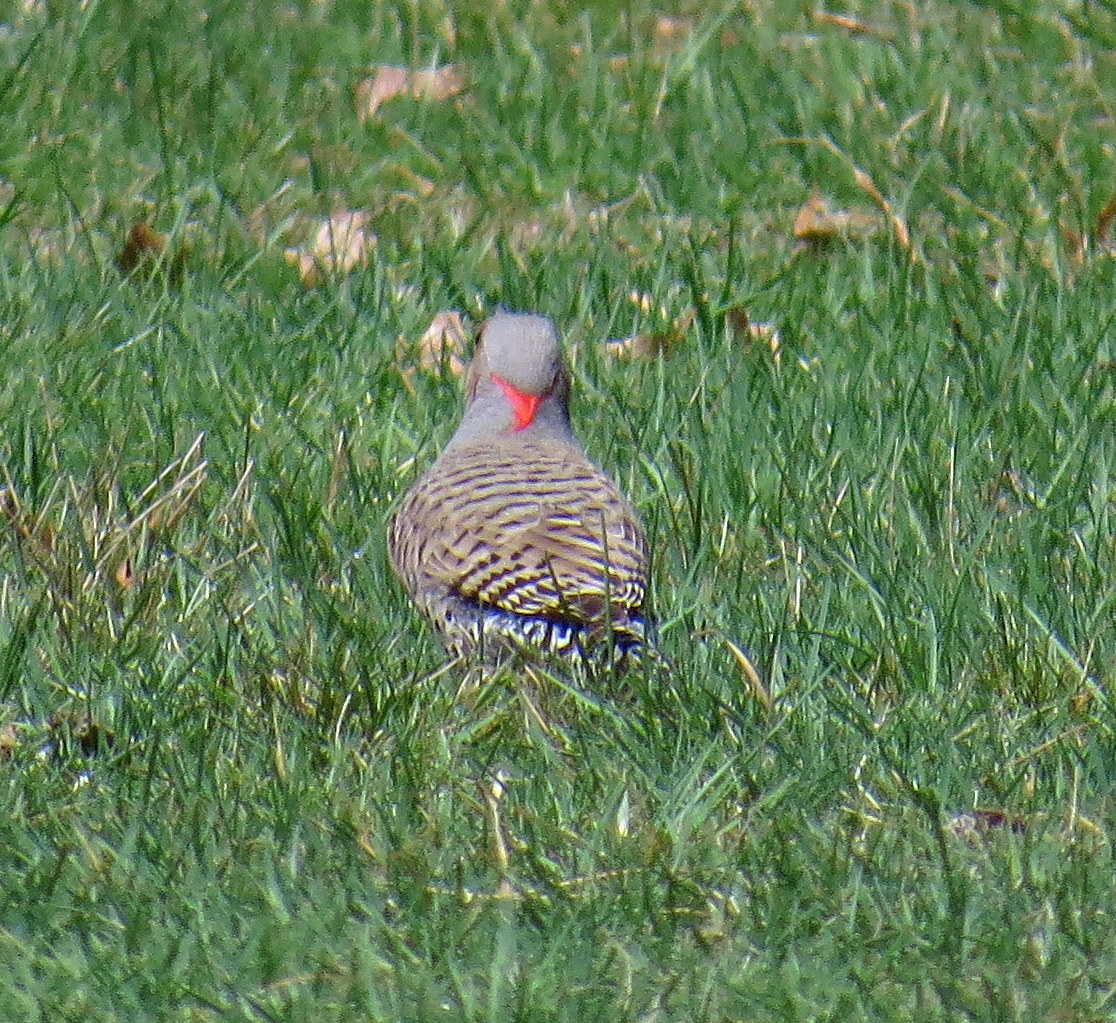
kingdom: Animalia
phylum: Chordata
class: Aves
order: Piciformes
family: Picidae
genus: Colaptes
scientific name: Colaptes auratus
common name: Northern flicker
